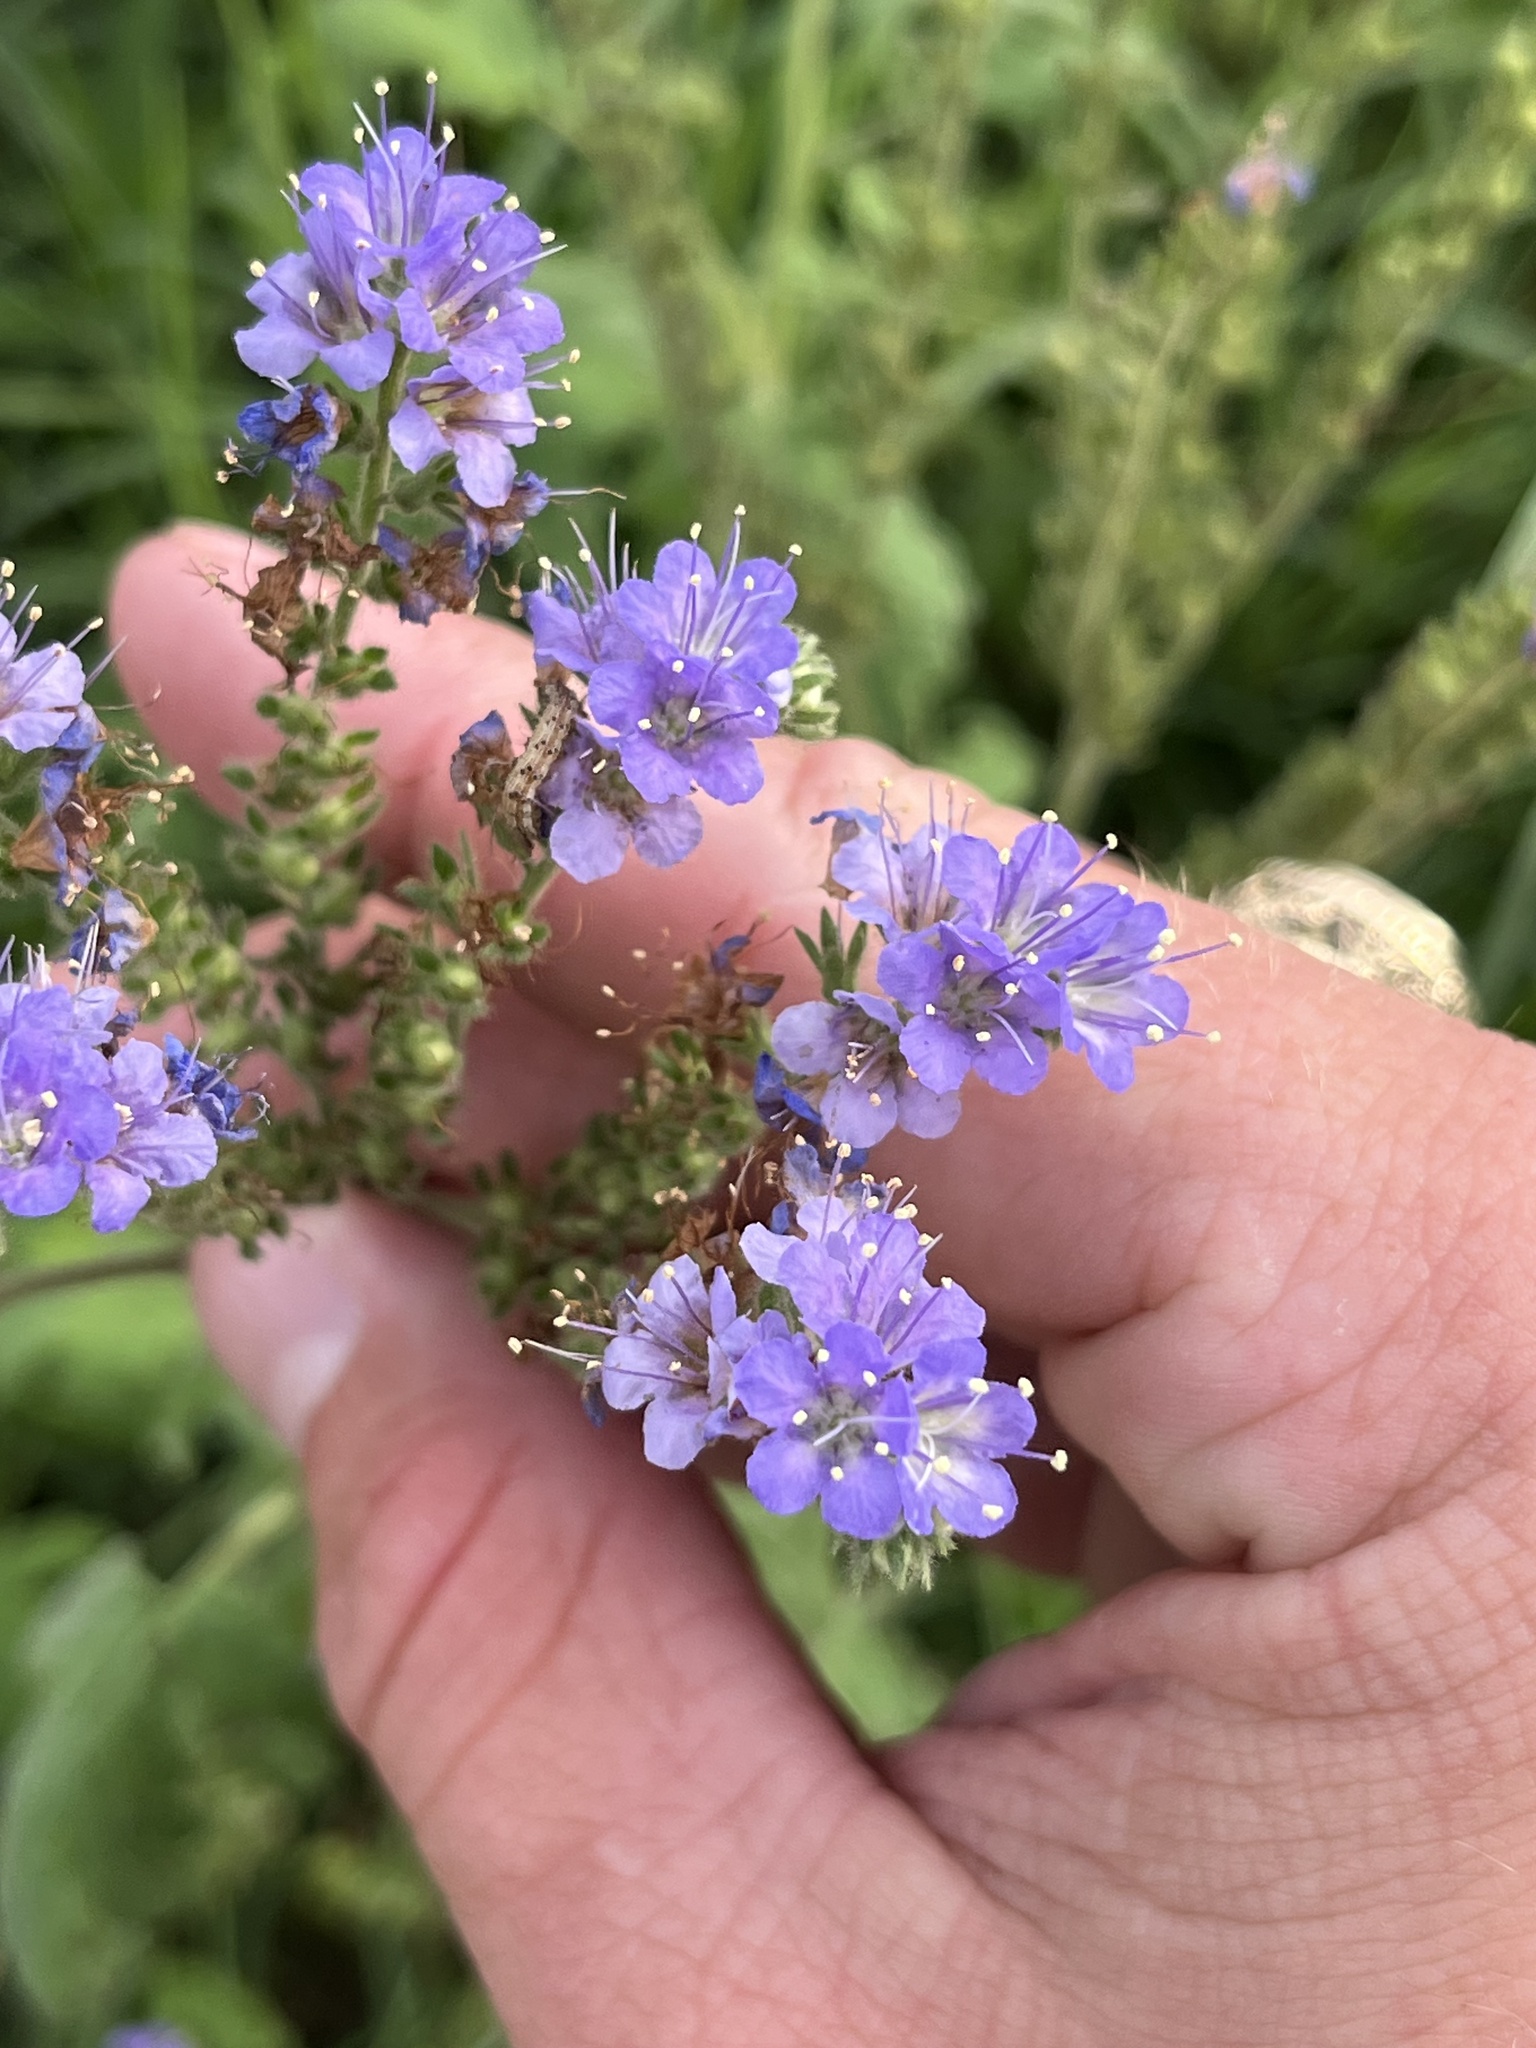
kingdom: Plantae
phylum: Tracheophyta
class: Magnoliopsida
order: Boraginales
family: Hydrophyllaceae
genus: Phacelia
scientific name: Phacelia congesta
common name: Blue curls
